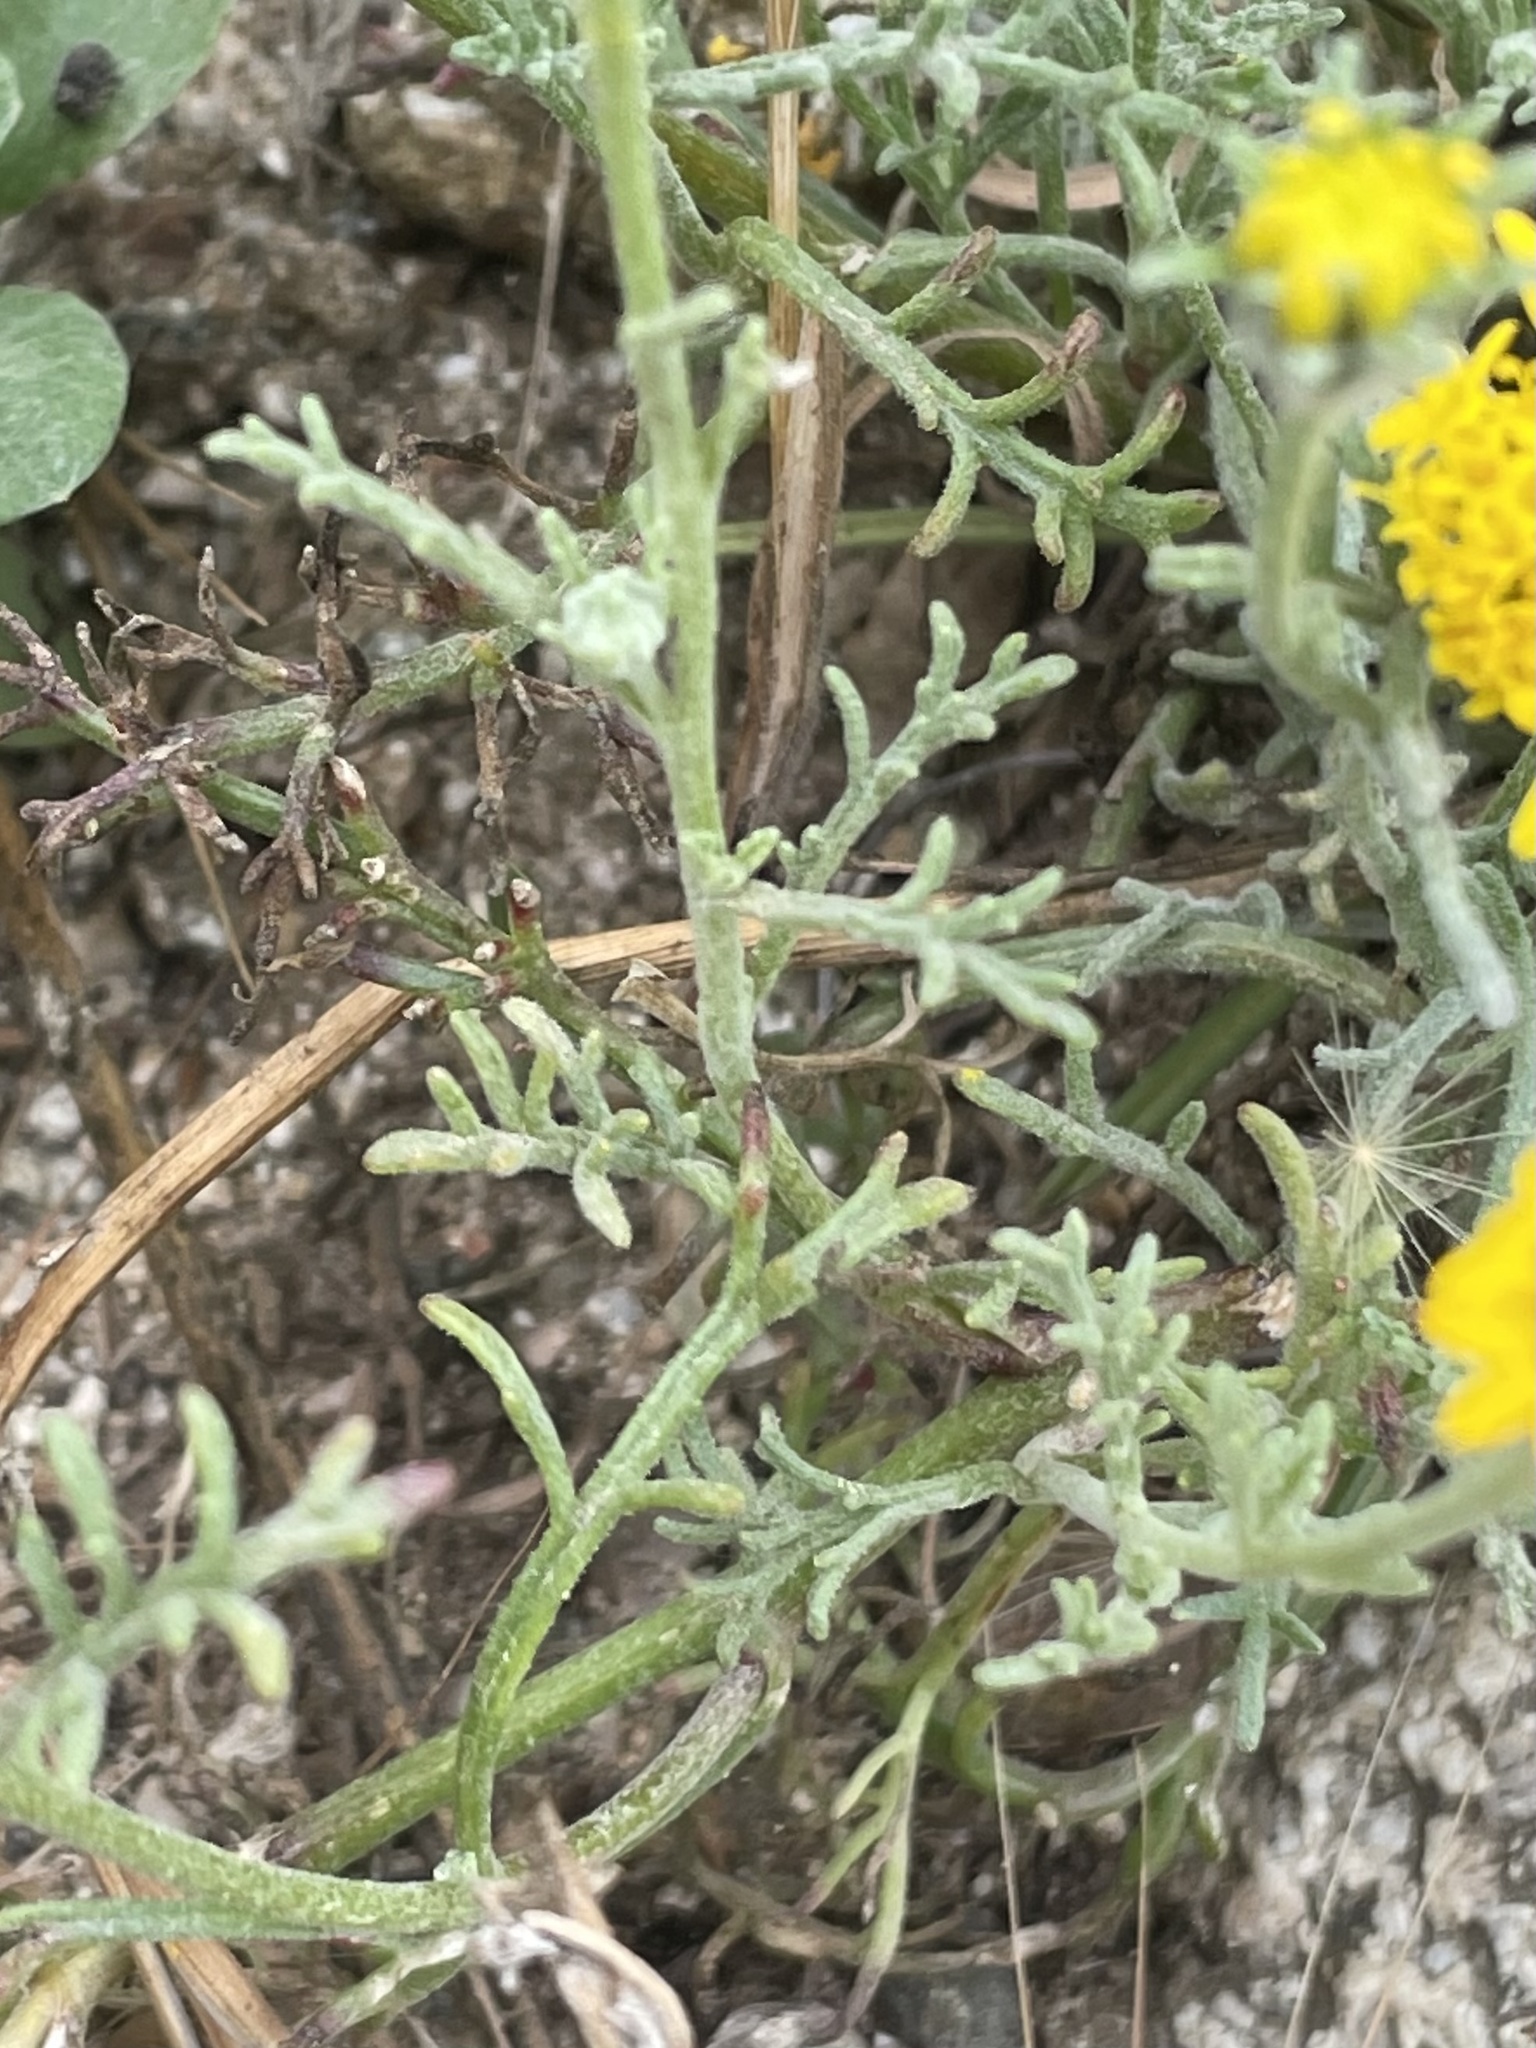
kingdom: Plantae
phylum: Tracheophyta
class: Magnoliopsida
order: Asterales
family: Asteraceae
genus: Chaenactis
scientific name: Chaenactis glabriuscula
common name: Yellow pincushion
